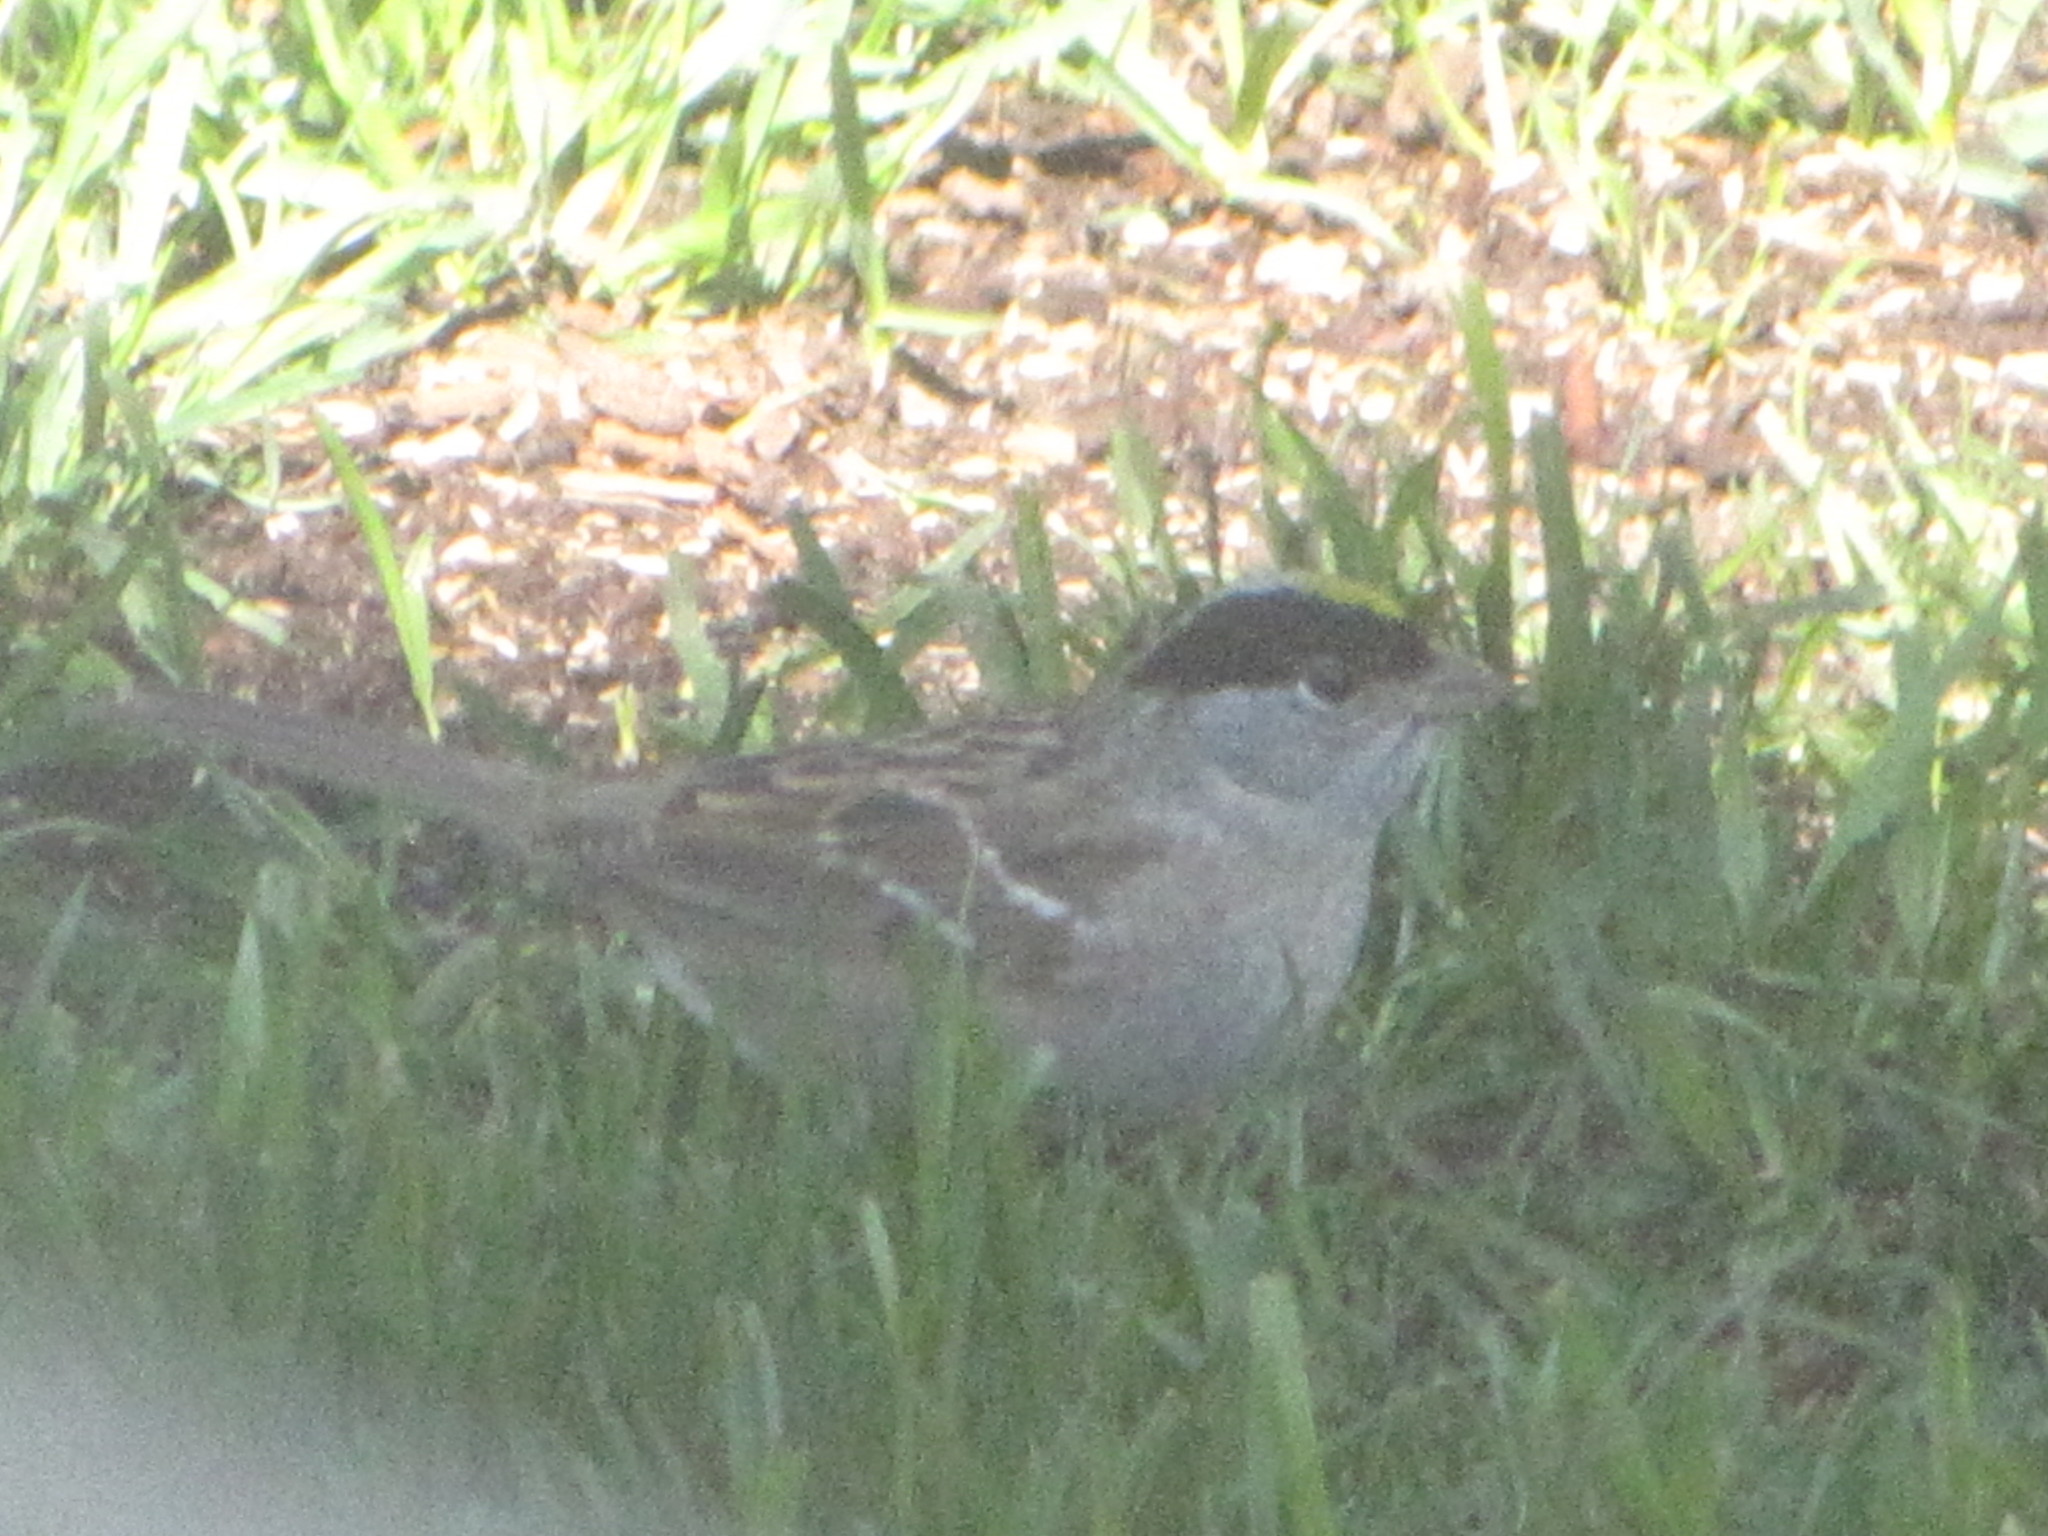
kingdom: Animalia
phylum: Chordata
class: Aves
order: Passeriformes
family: Passerellidae
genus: Zonotrichia
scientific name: Zonotrichia atricapilla
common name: Golden-crowned sparrow
